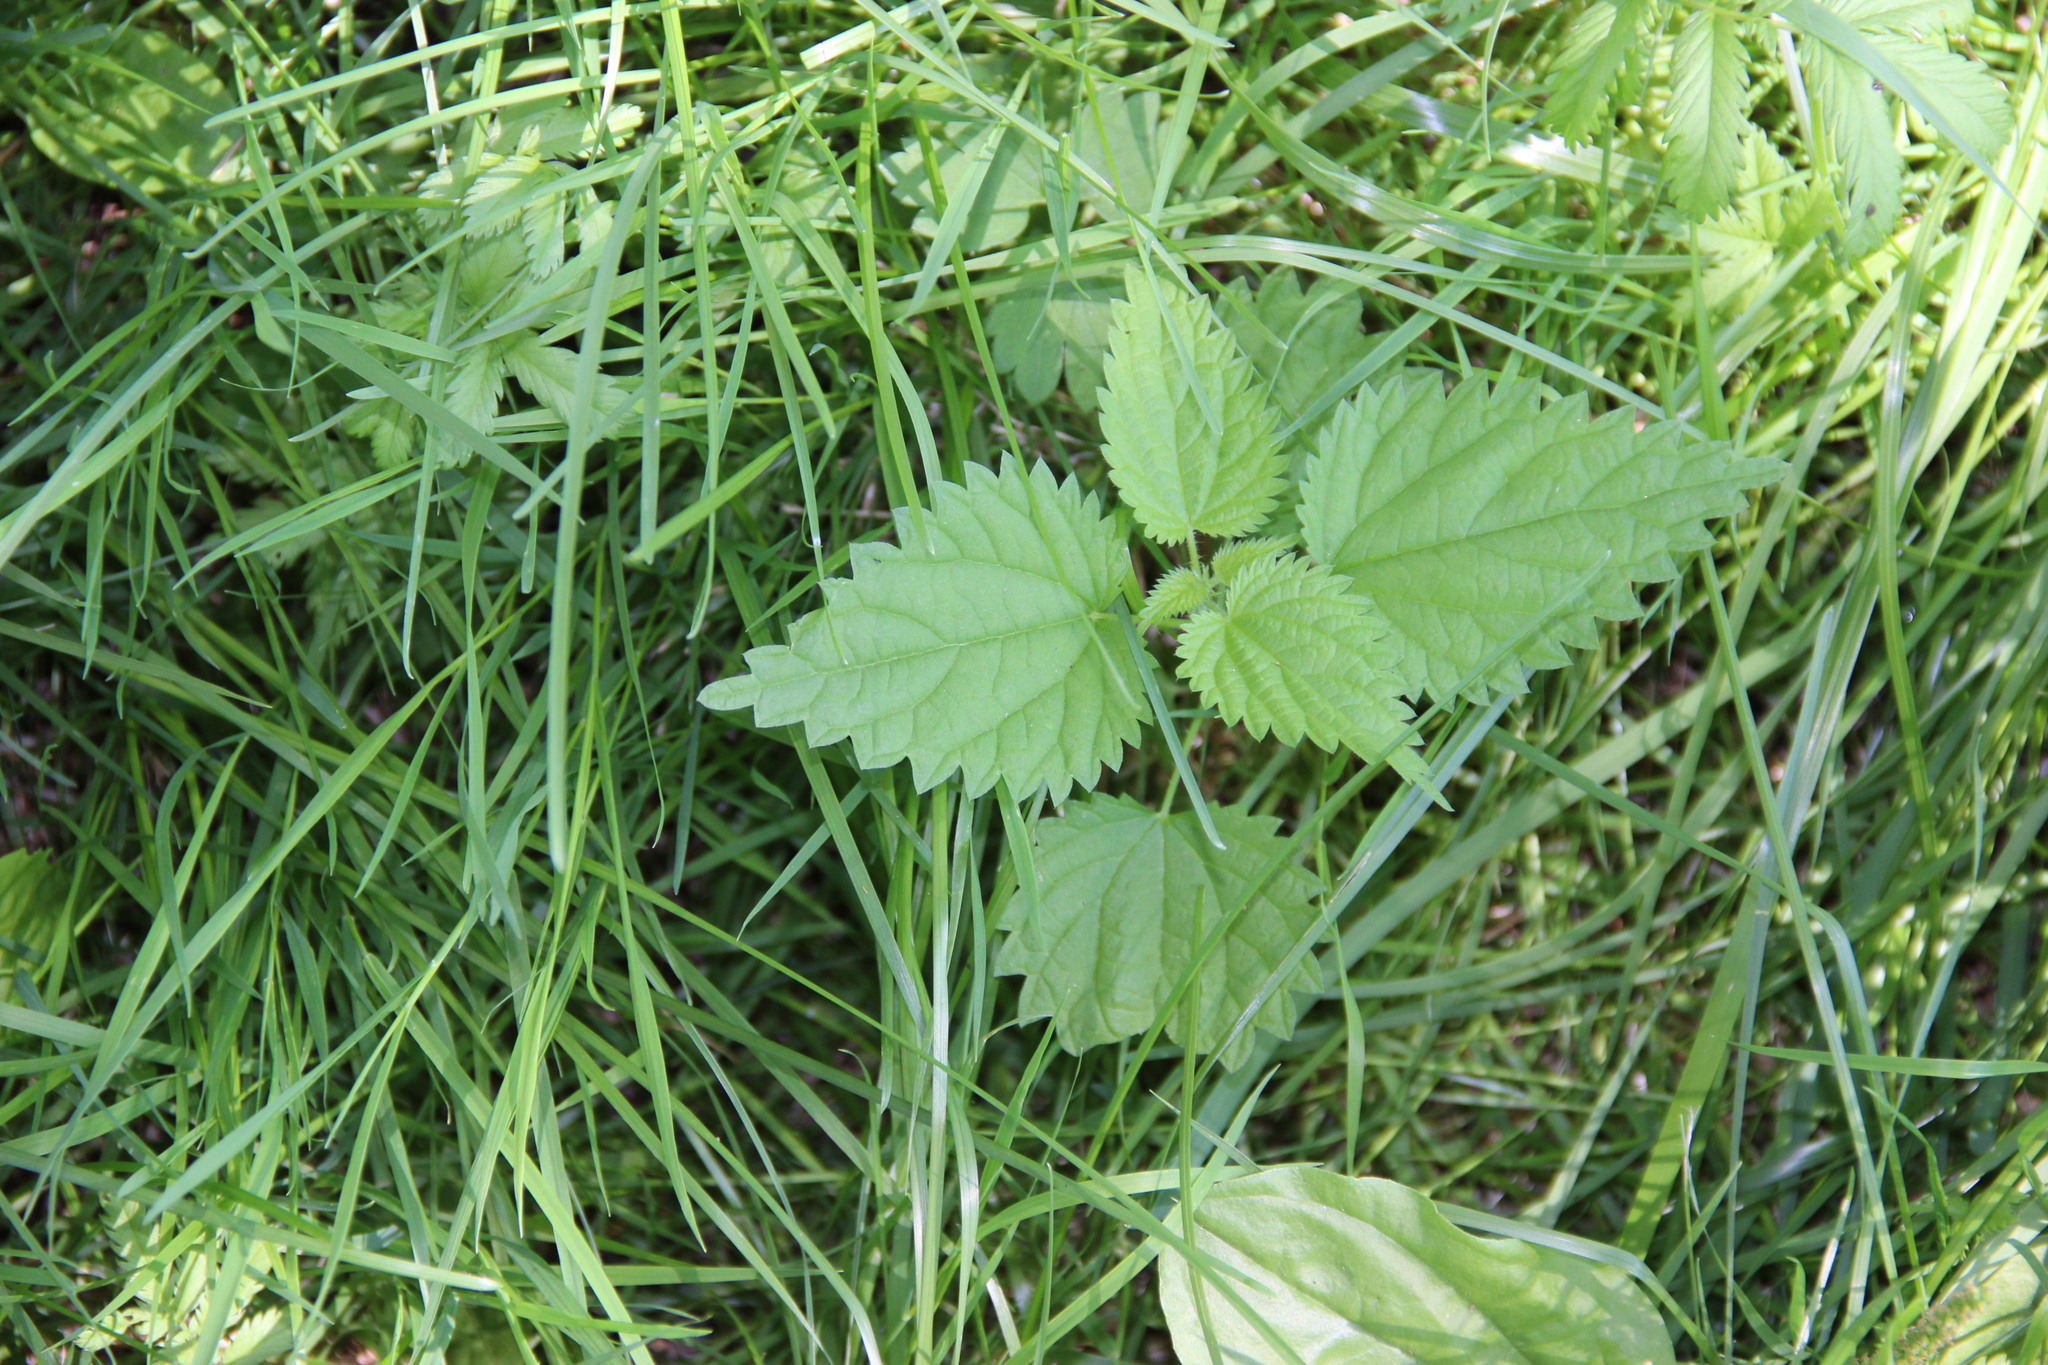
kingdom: Plantae
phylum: Tracheophyta
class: Magnoliopsida
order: Rosales
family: Urticaceae
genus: Urtica
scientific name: Urtica dioica
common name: Common nettle
